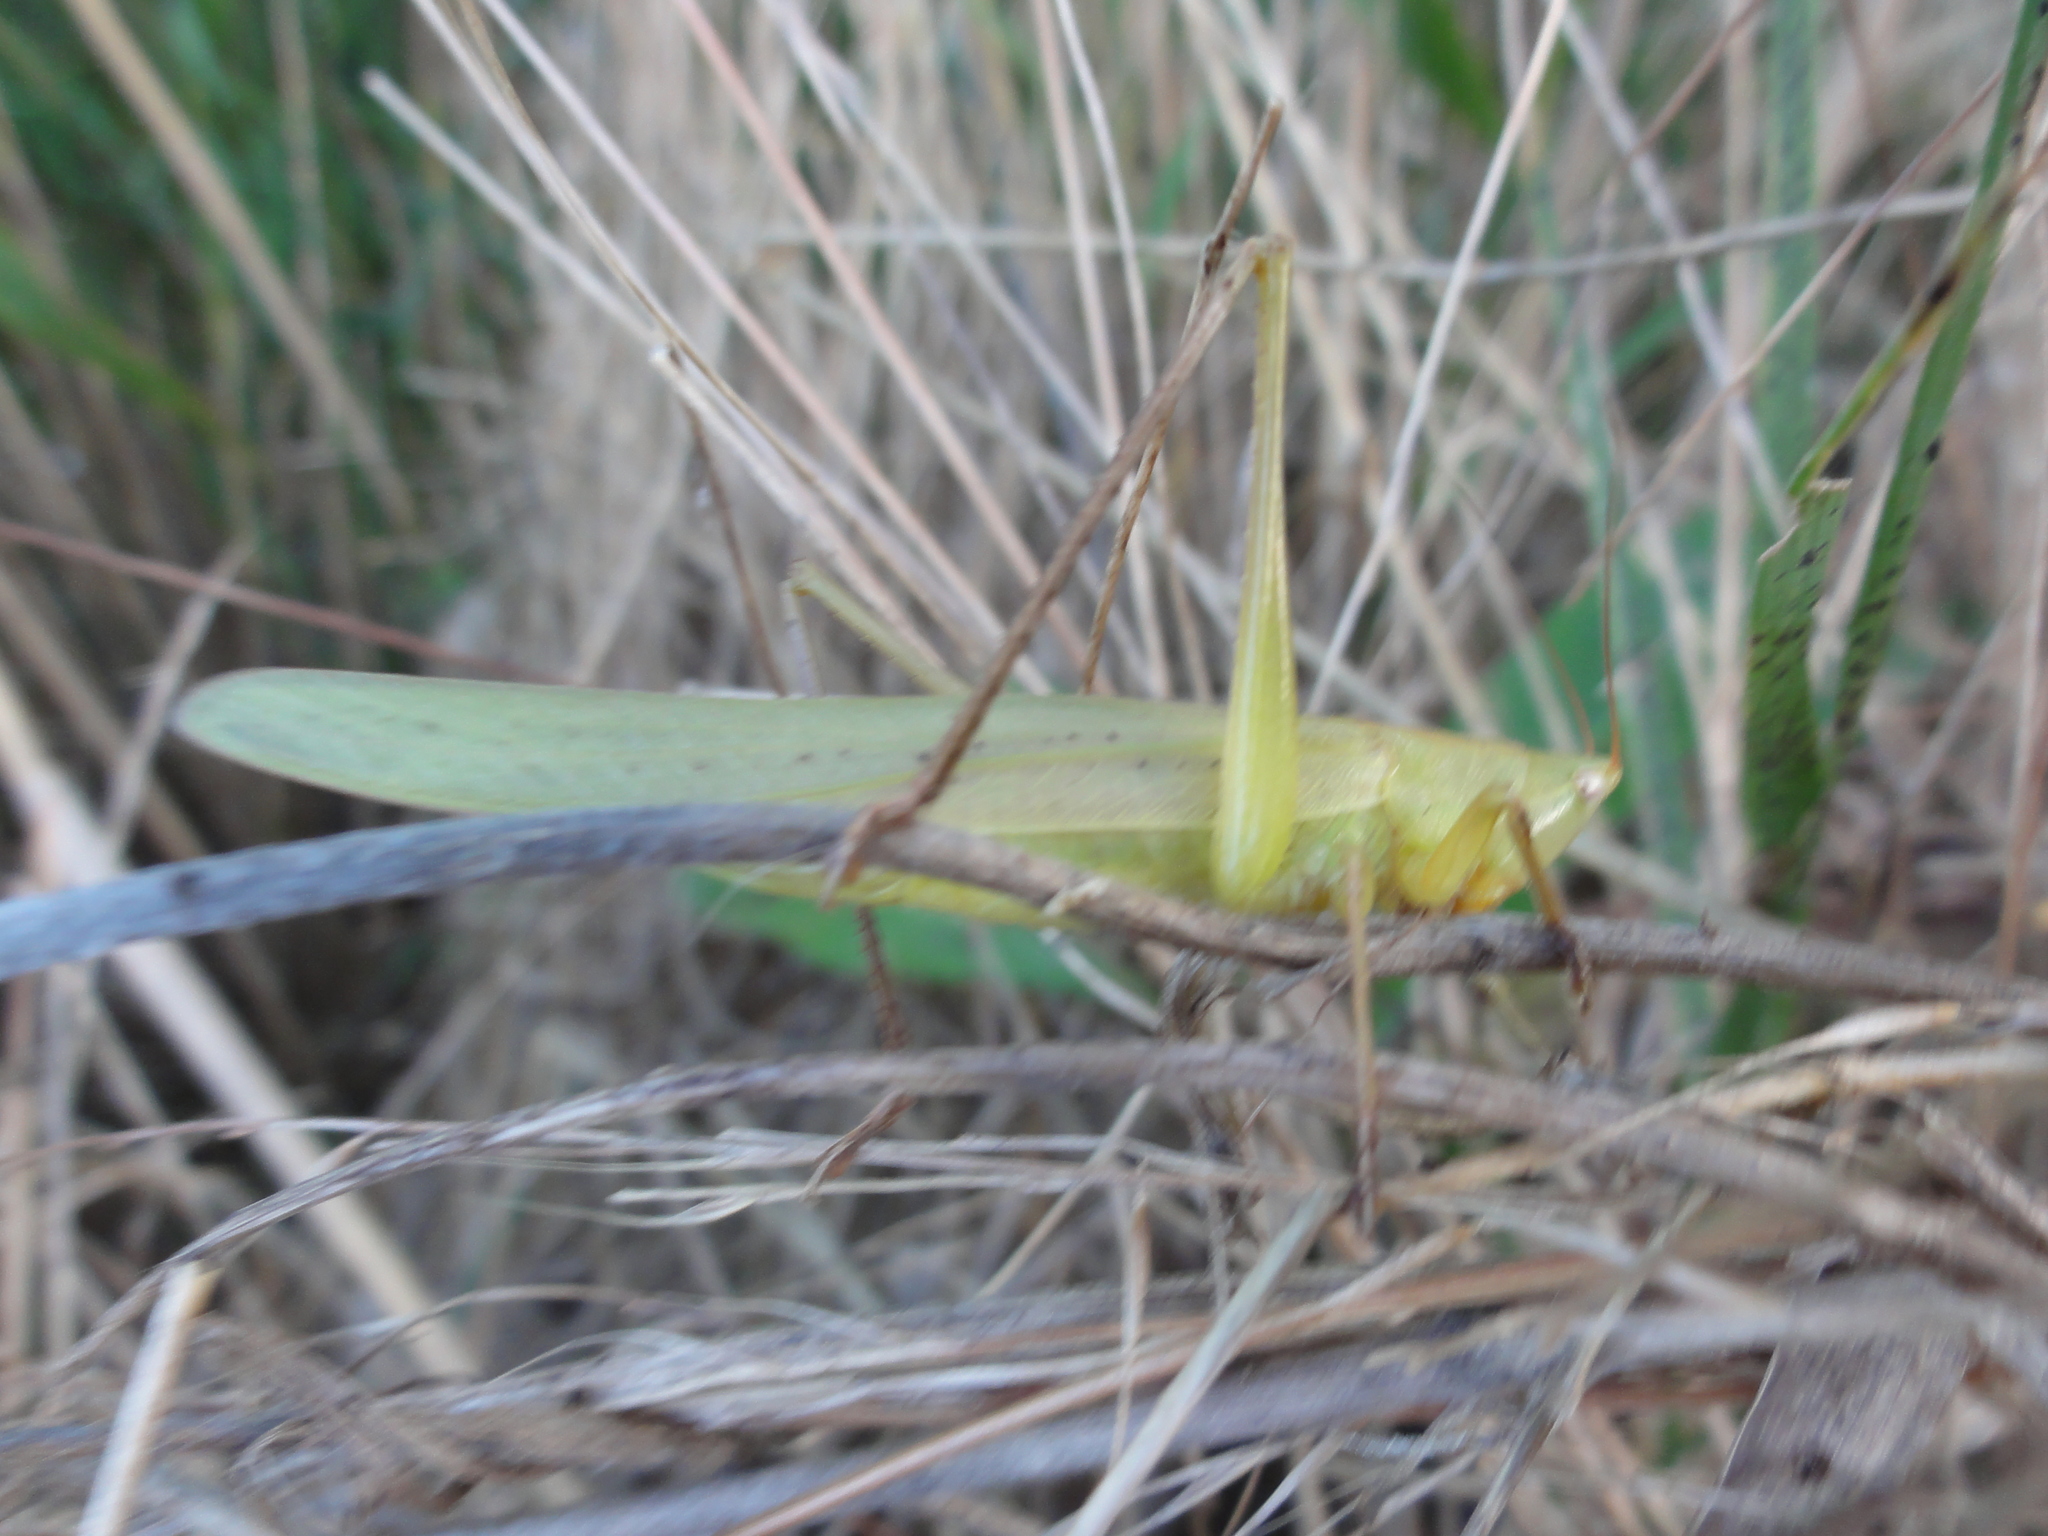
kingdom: Animalia
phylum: Arthropoda
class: Insecta
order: Orthoptera
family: Tettigoniidae
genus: Ruspolia
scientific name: Ruspolia nitidula
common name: Large conehead
